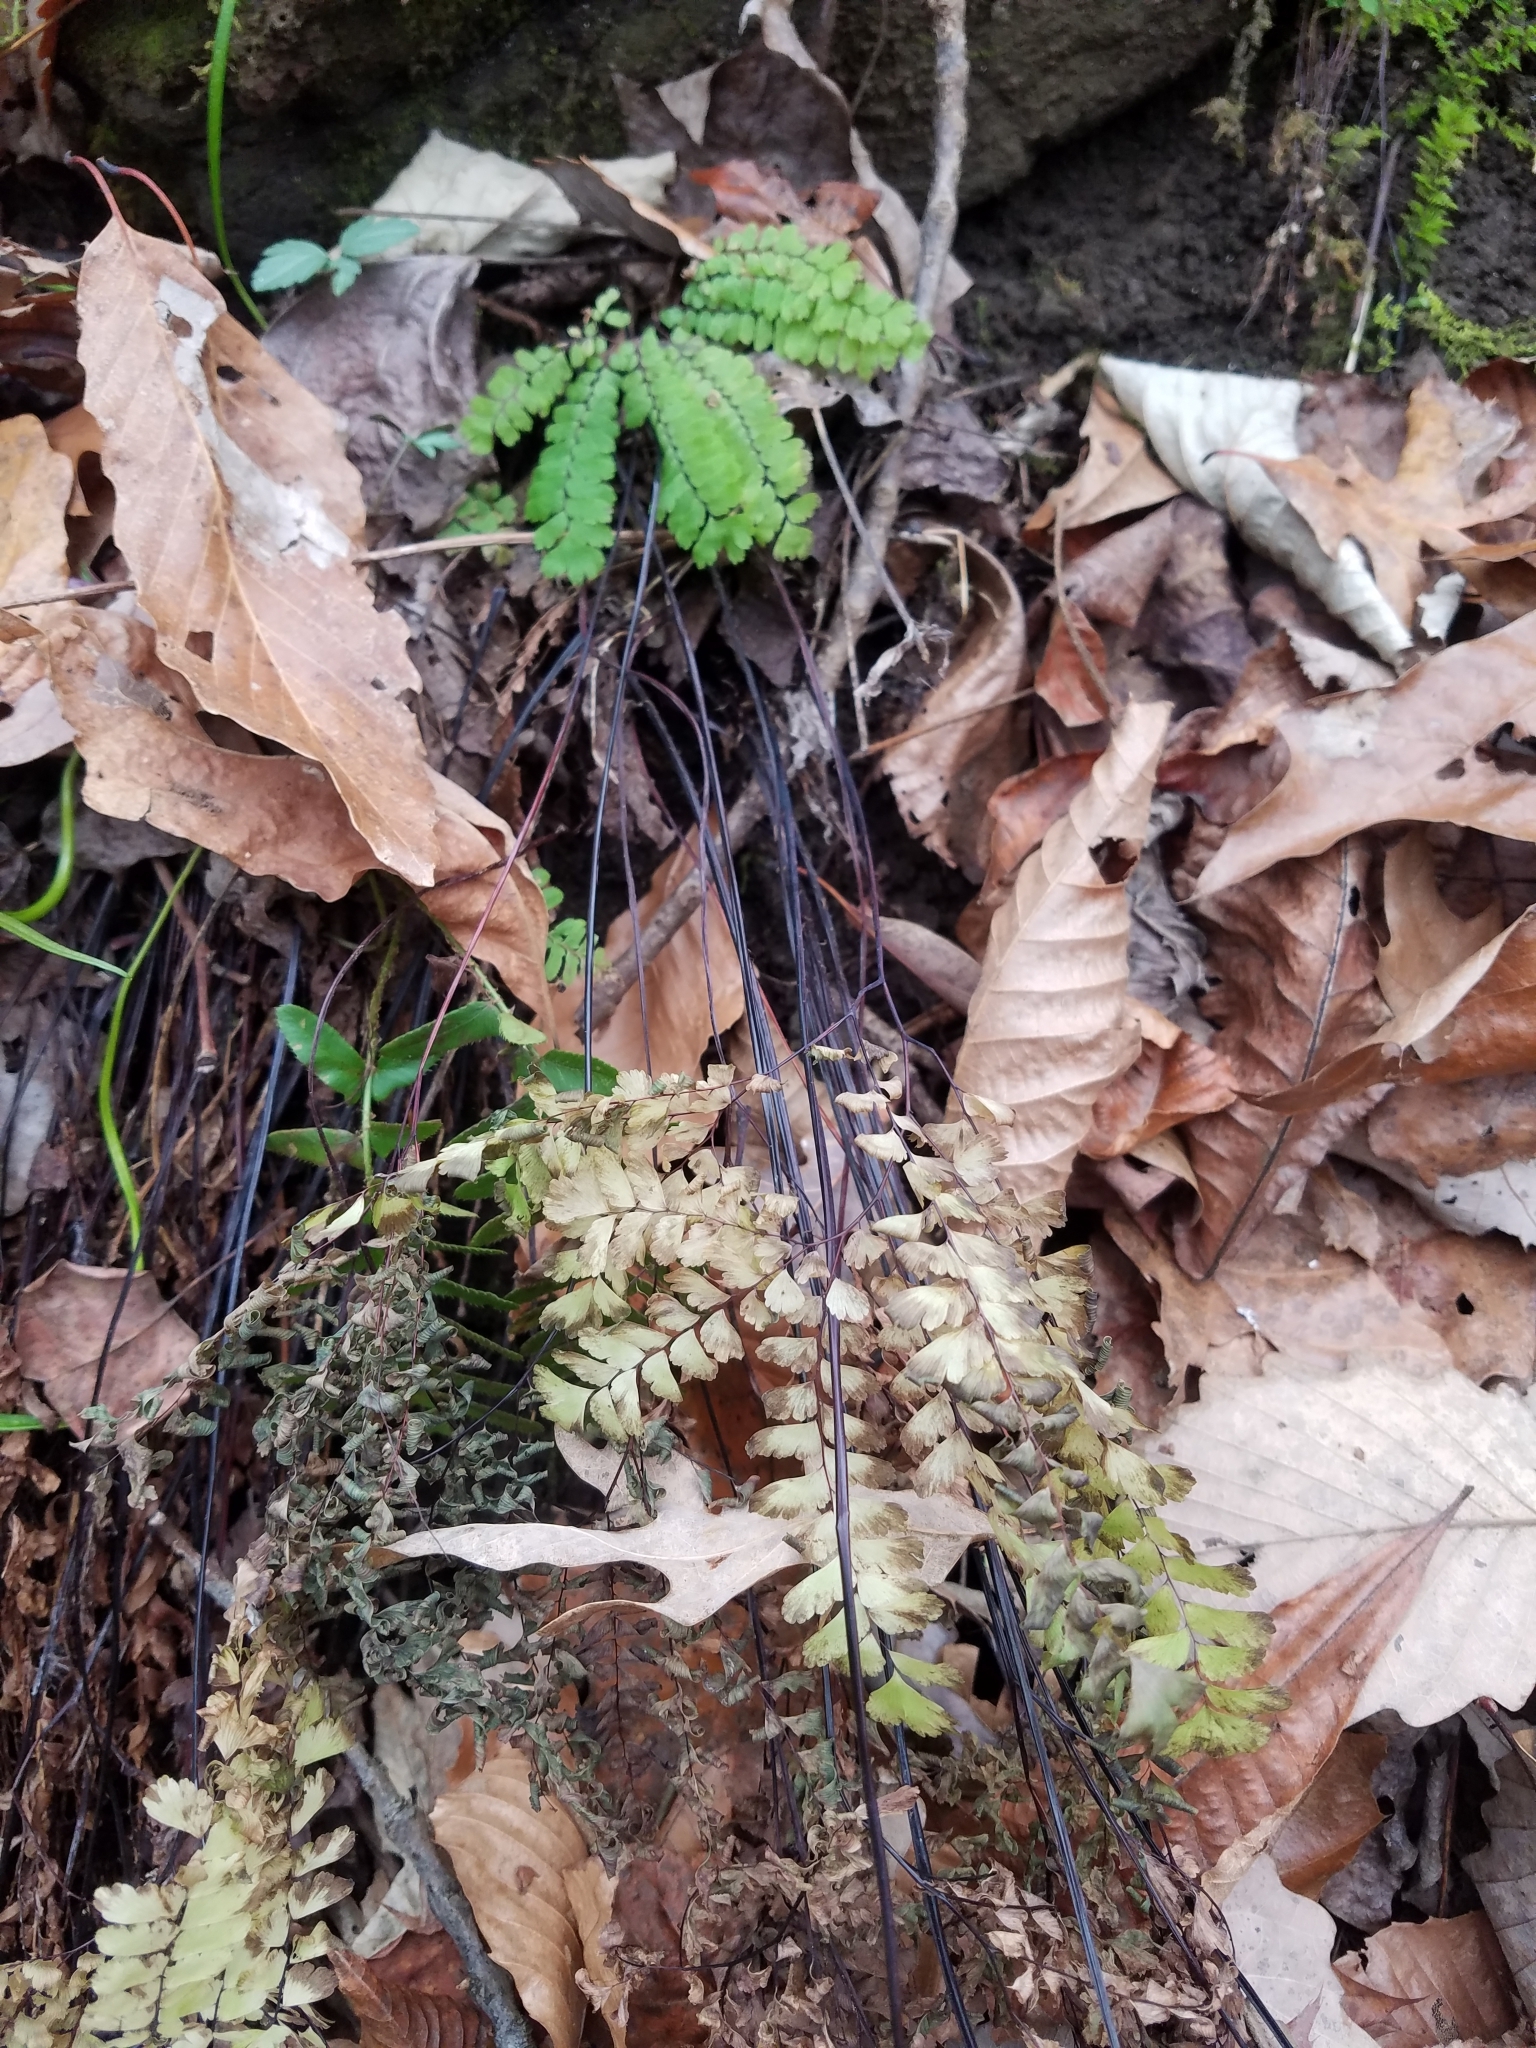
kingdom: Plantae
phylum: Tracheophyta
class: Polypodiopsida
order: Polypodiales
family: Pteridaceae
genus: Adiantum
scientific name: Adiantum pedatum
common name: Five-finger fern
